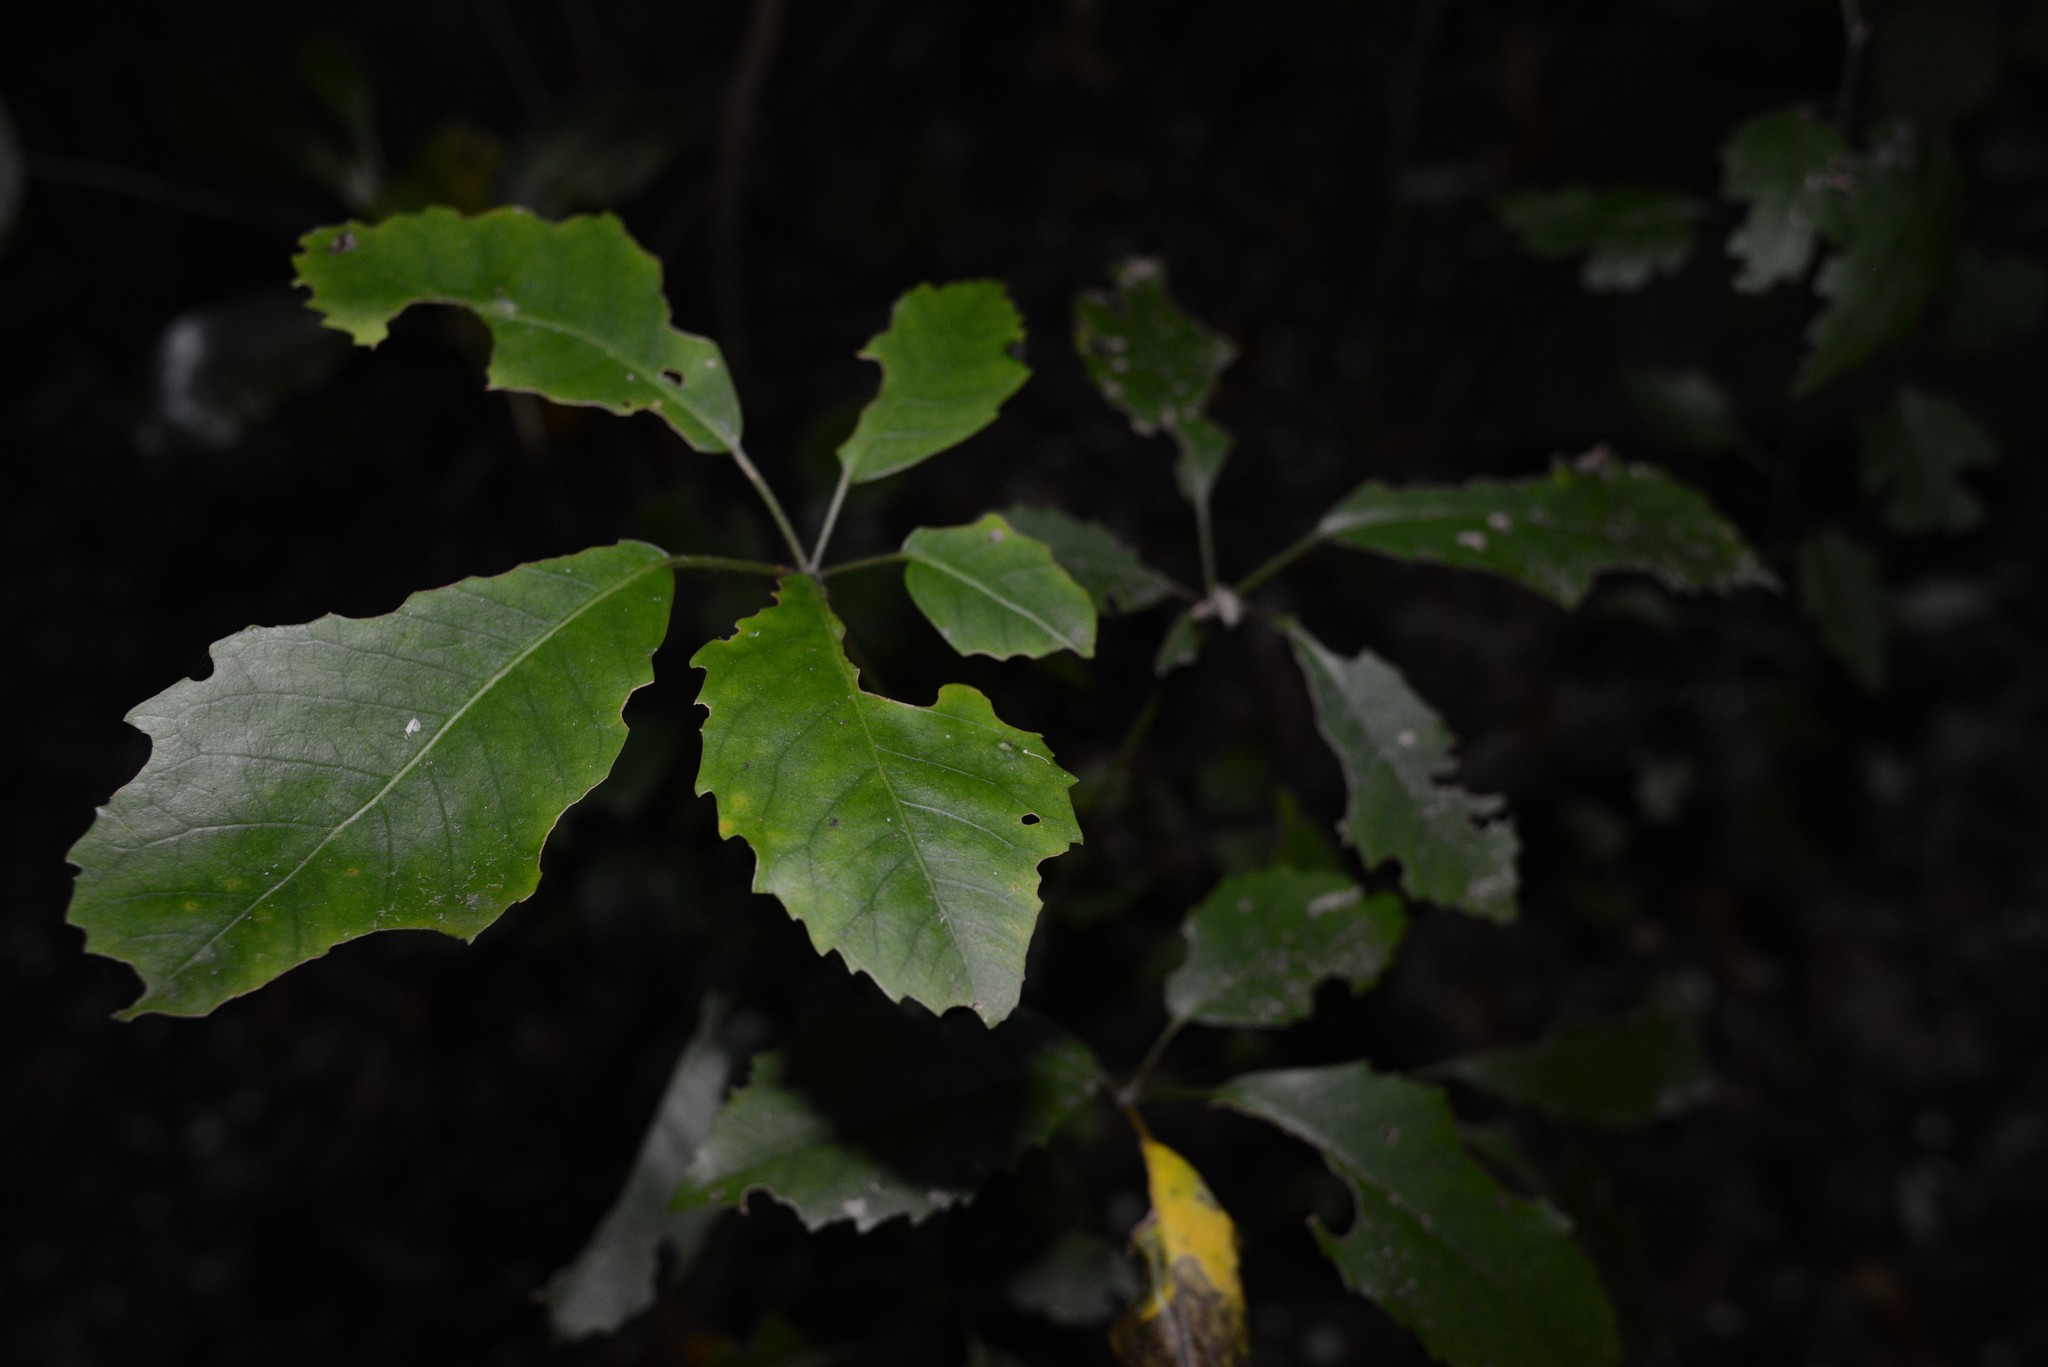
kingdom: Plantae
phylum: Tracheophyta
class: Magnoliopsida
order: Apiales
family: Araliaceae
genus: Neopanax
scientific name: Neopanax arboreus
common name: Five-fingers
